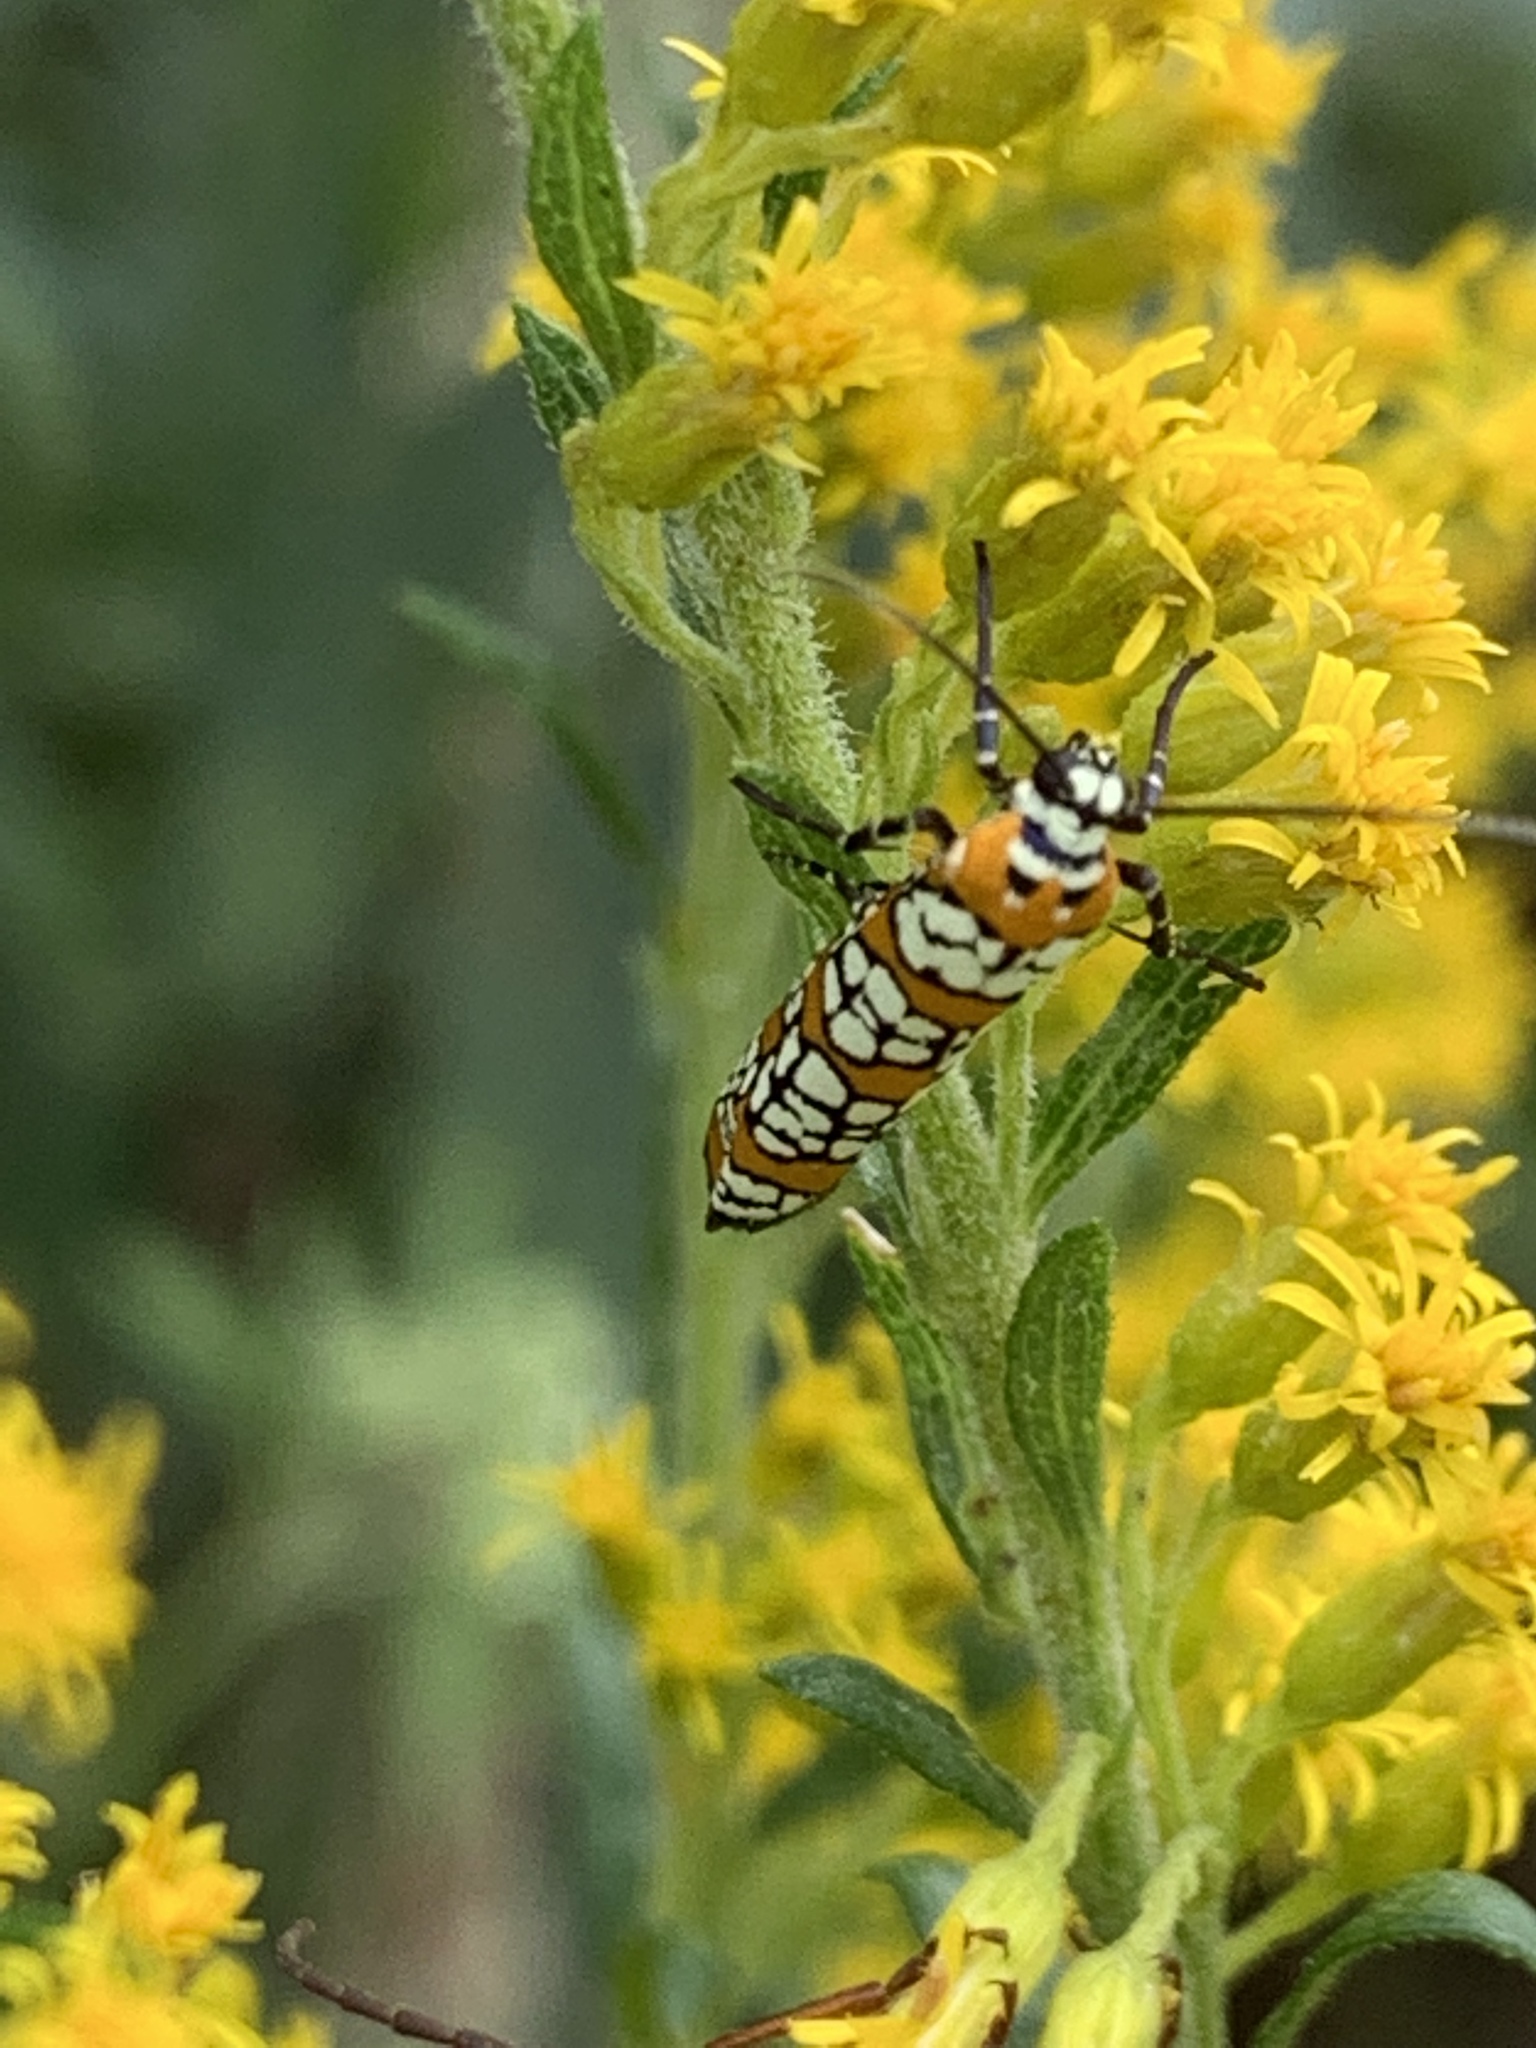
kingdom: Animalia
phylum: Arthropoda
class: Insecta
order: Lepidoptera
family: Attevidae
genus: Atteva
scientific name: Atteva punctella
